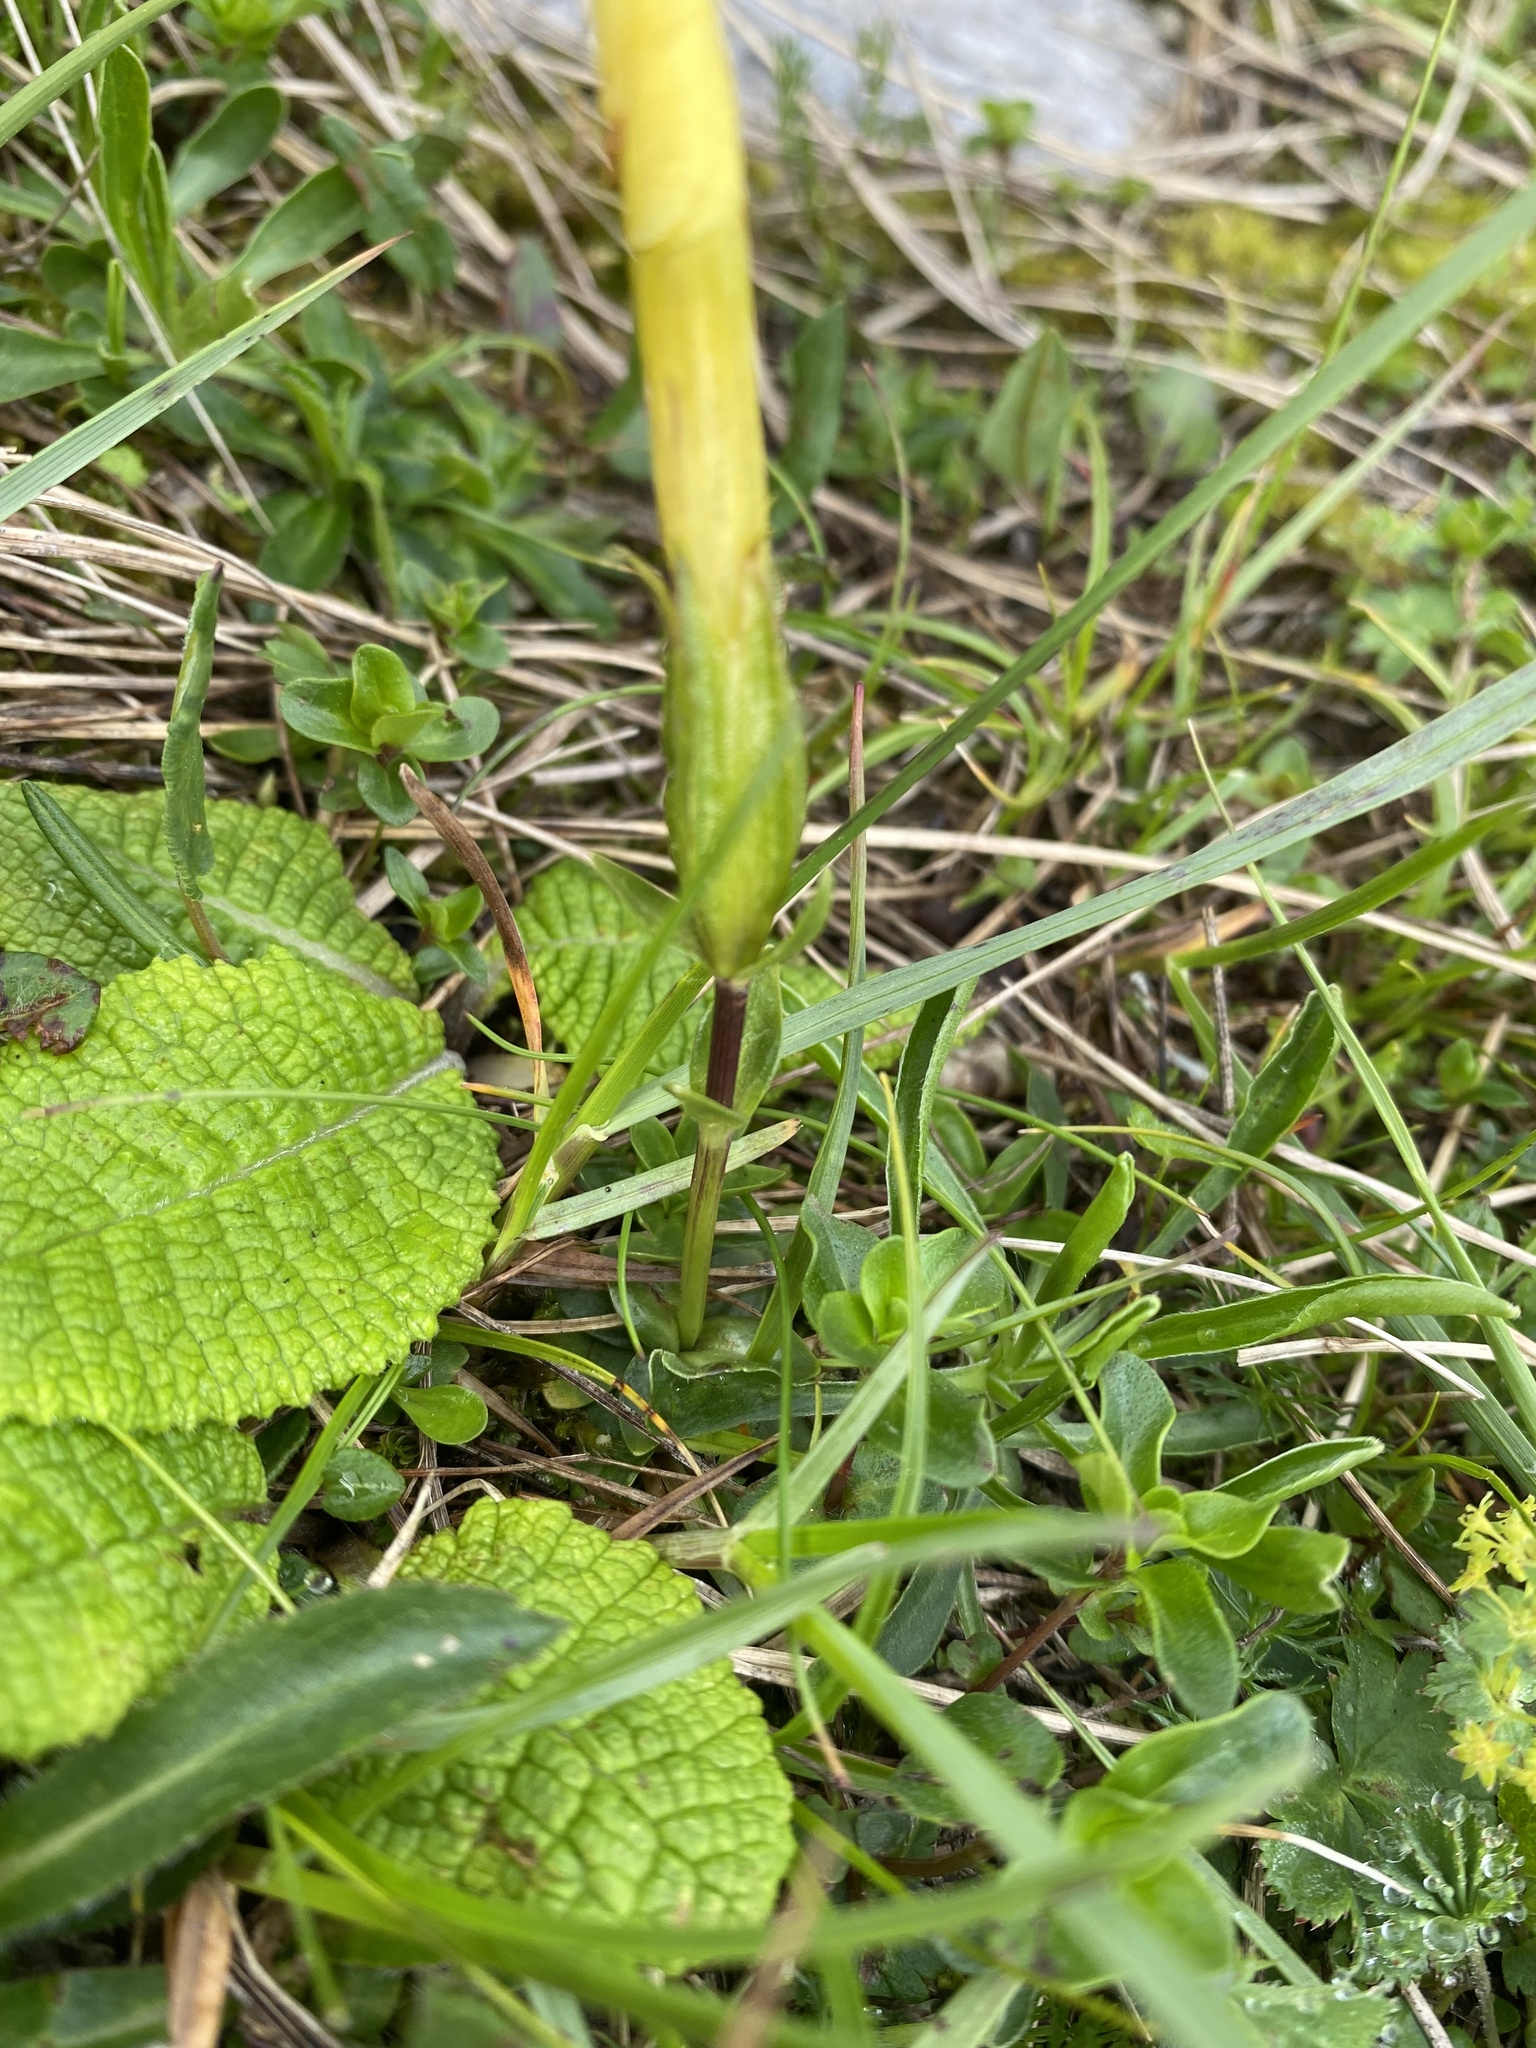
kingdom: Plantae
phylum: Tracheophyta
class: Magnoliopsida
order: Gentianales
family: Gentianaceae
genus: Gentiana
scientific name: Gentiana verna
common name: Spring gentian
